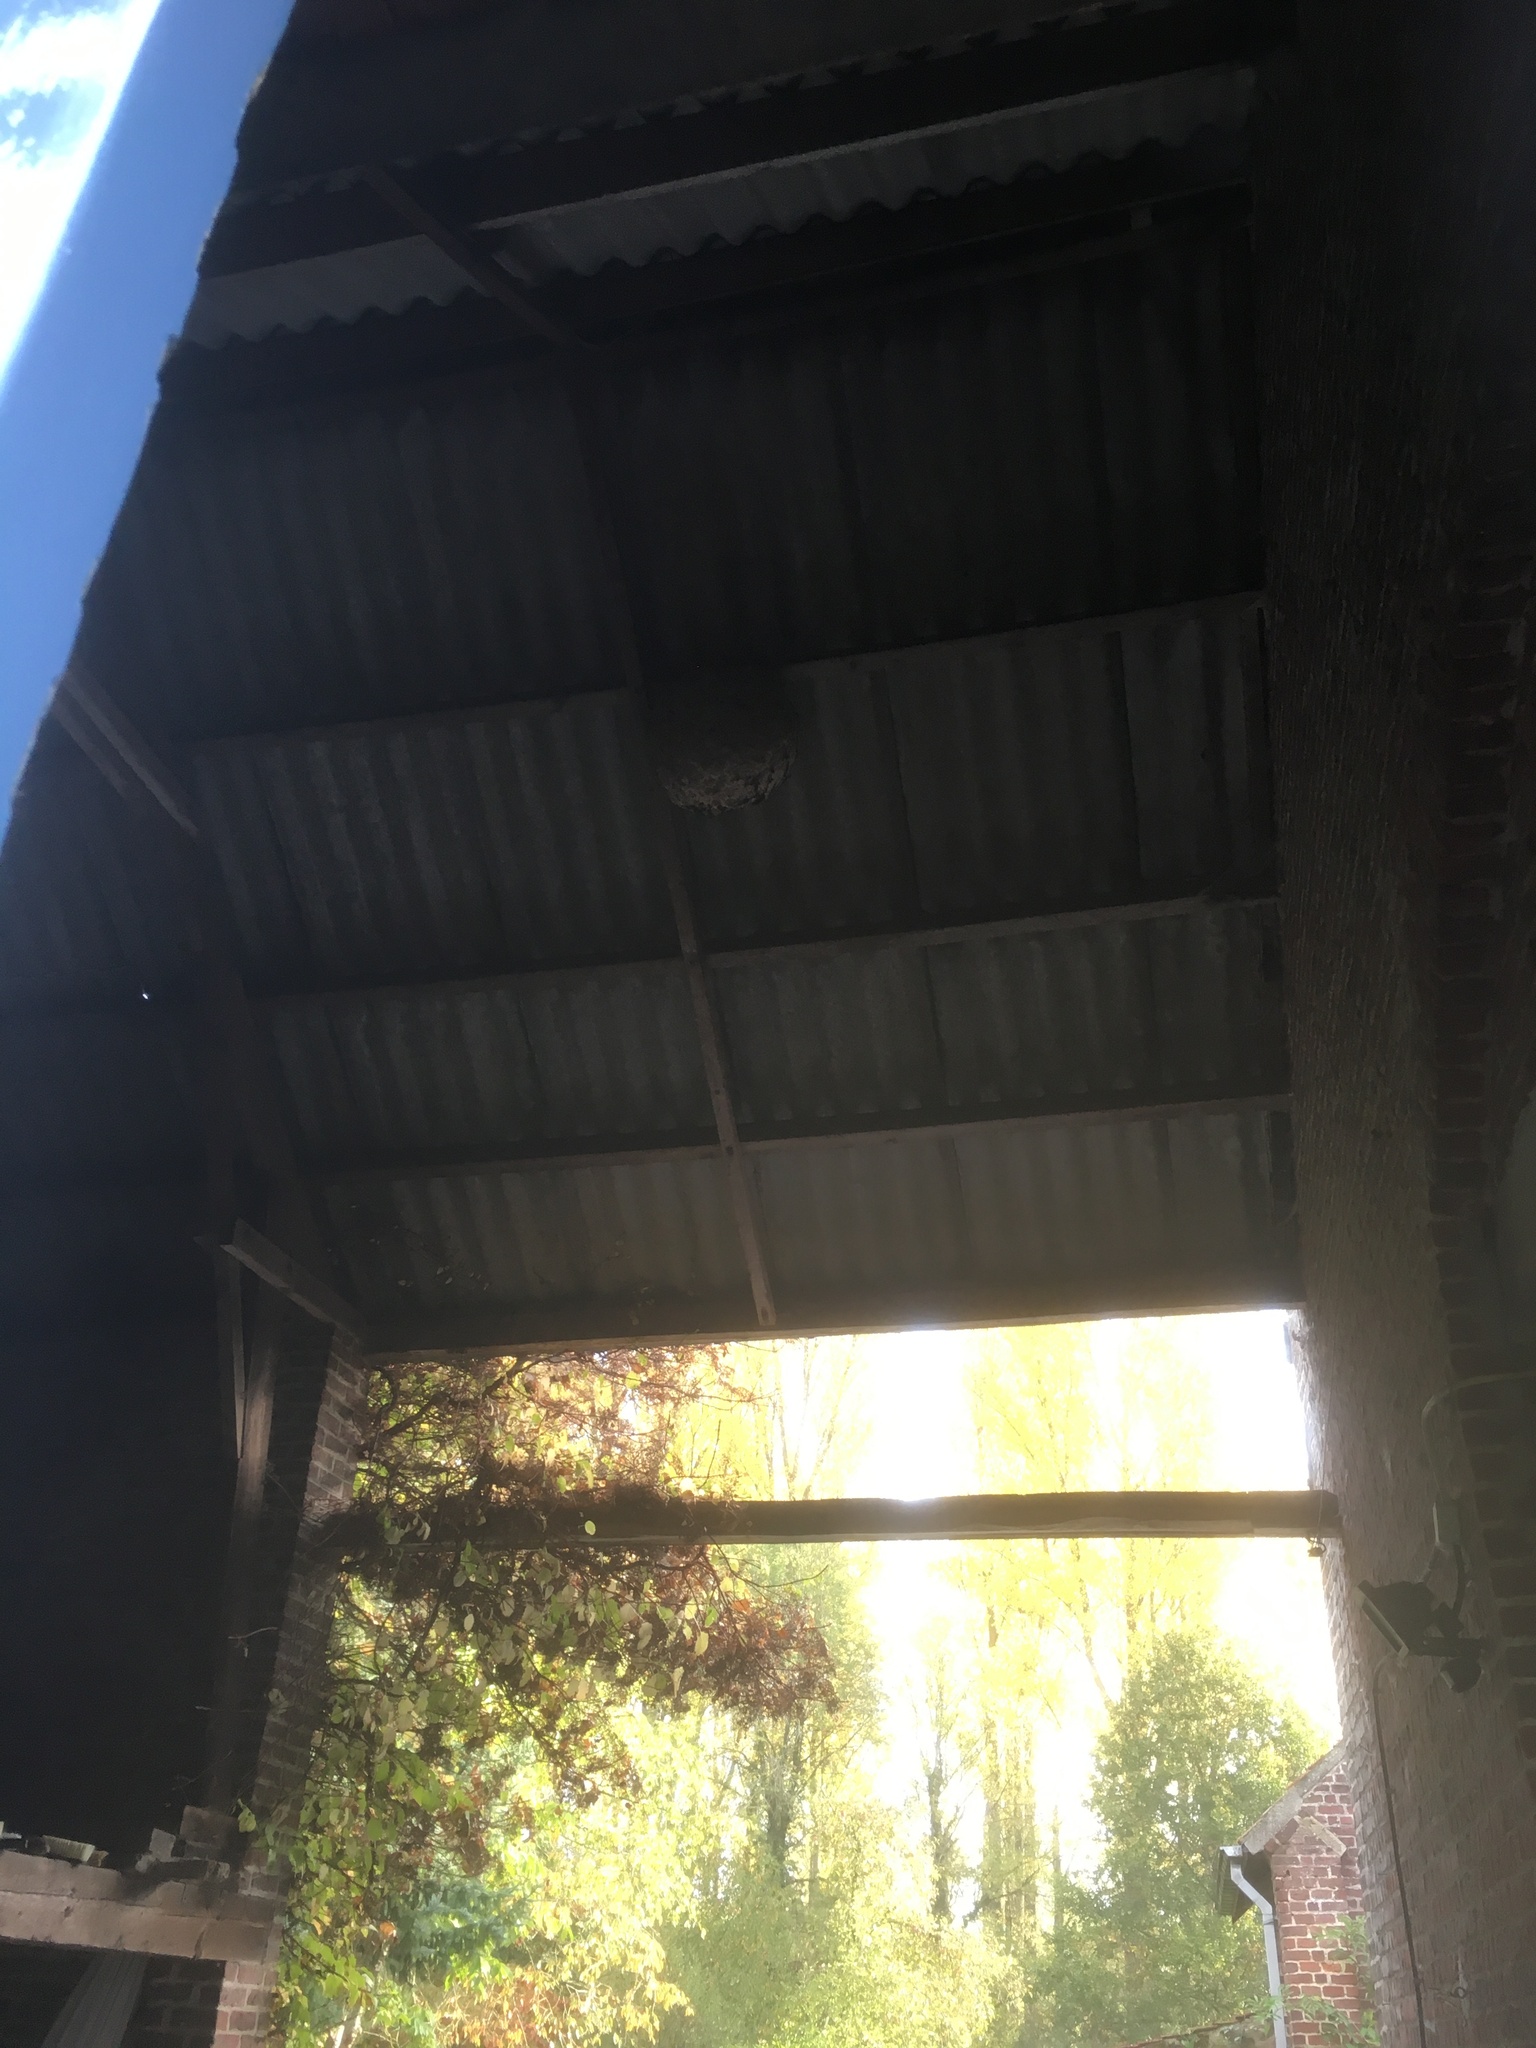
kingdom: Animalia
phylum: Arthropoda
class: Insecta
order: Hymenoptera
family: Vespidae
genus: Vespa
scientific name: Vespa velutina
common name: Asian hornet
